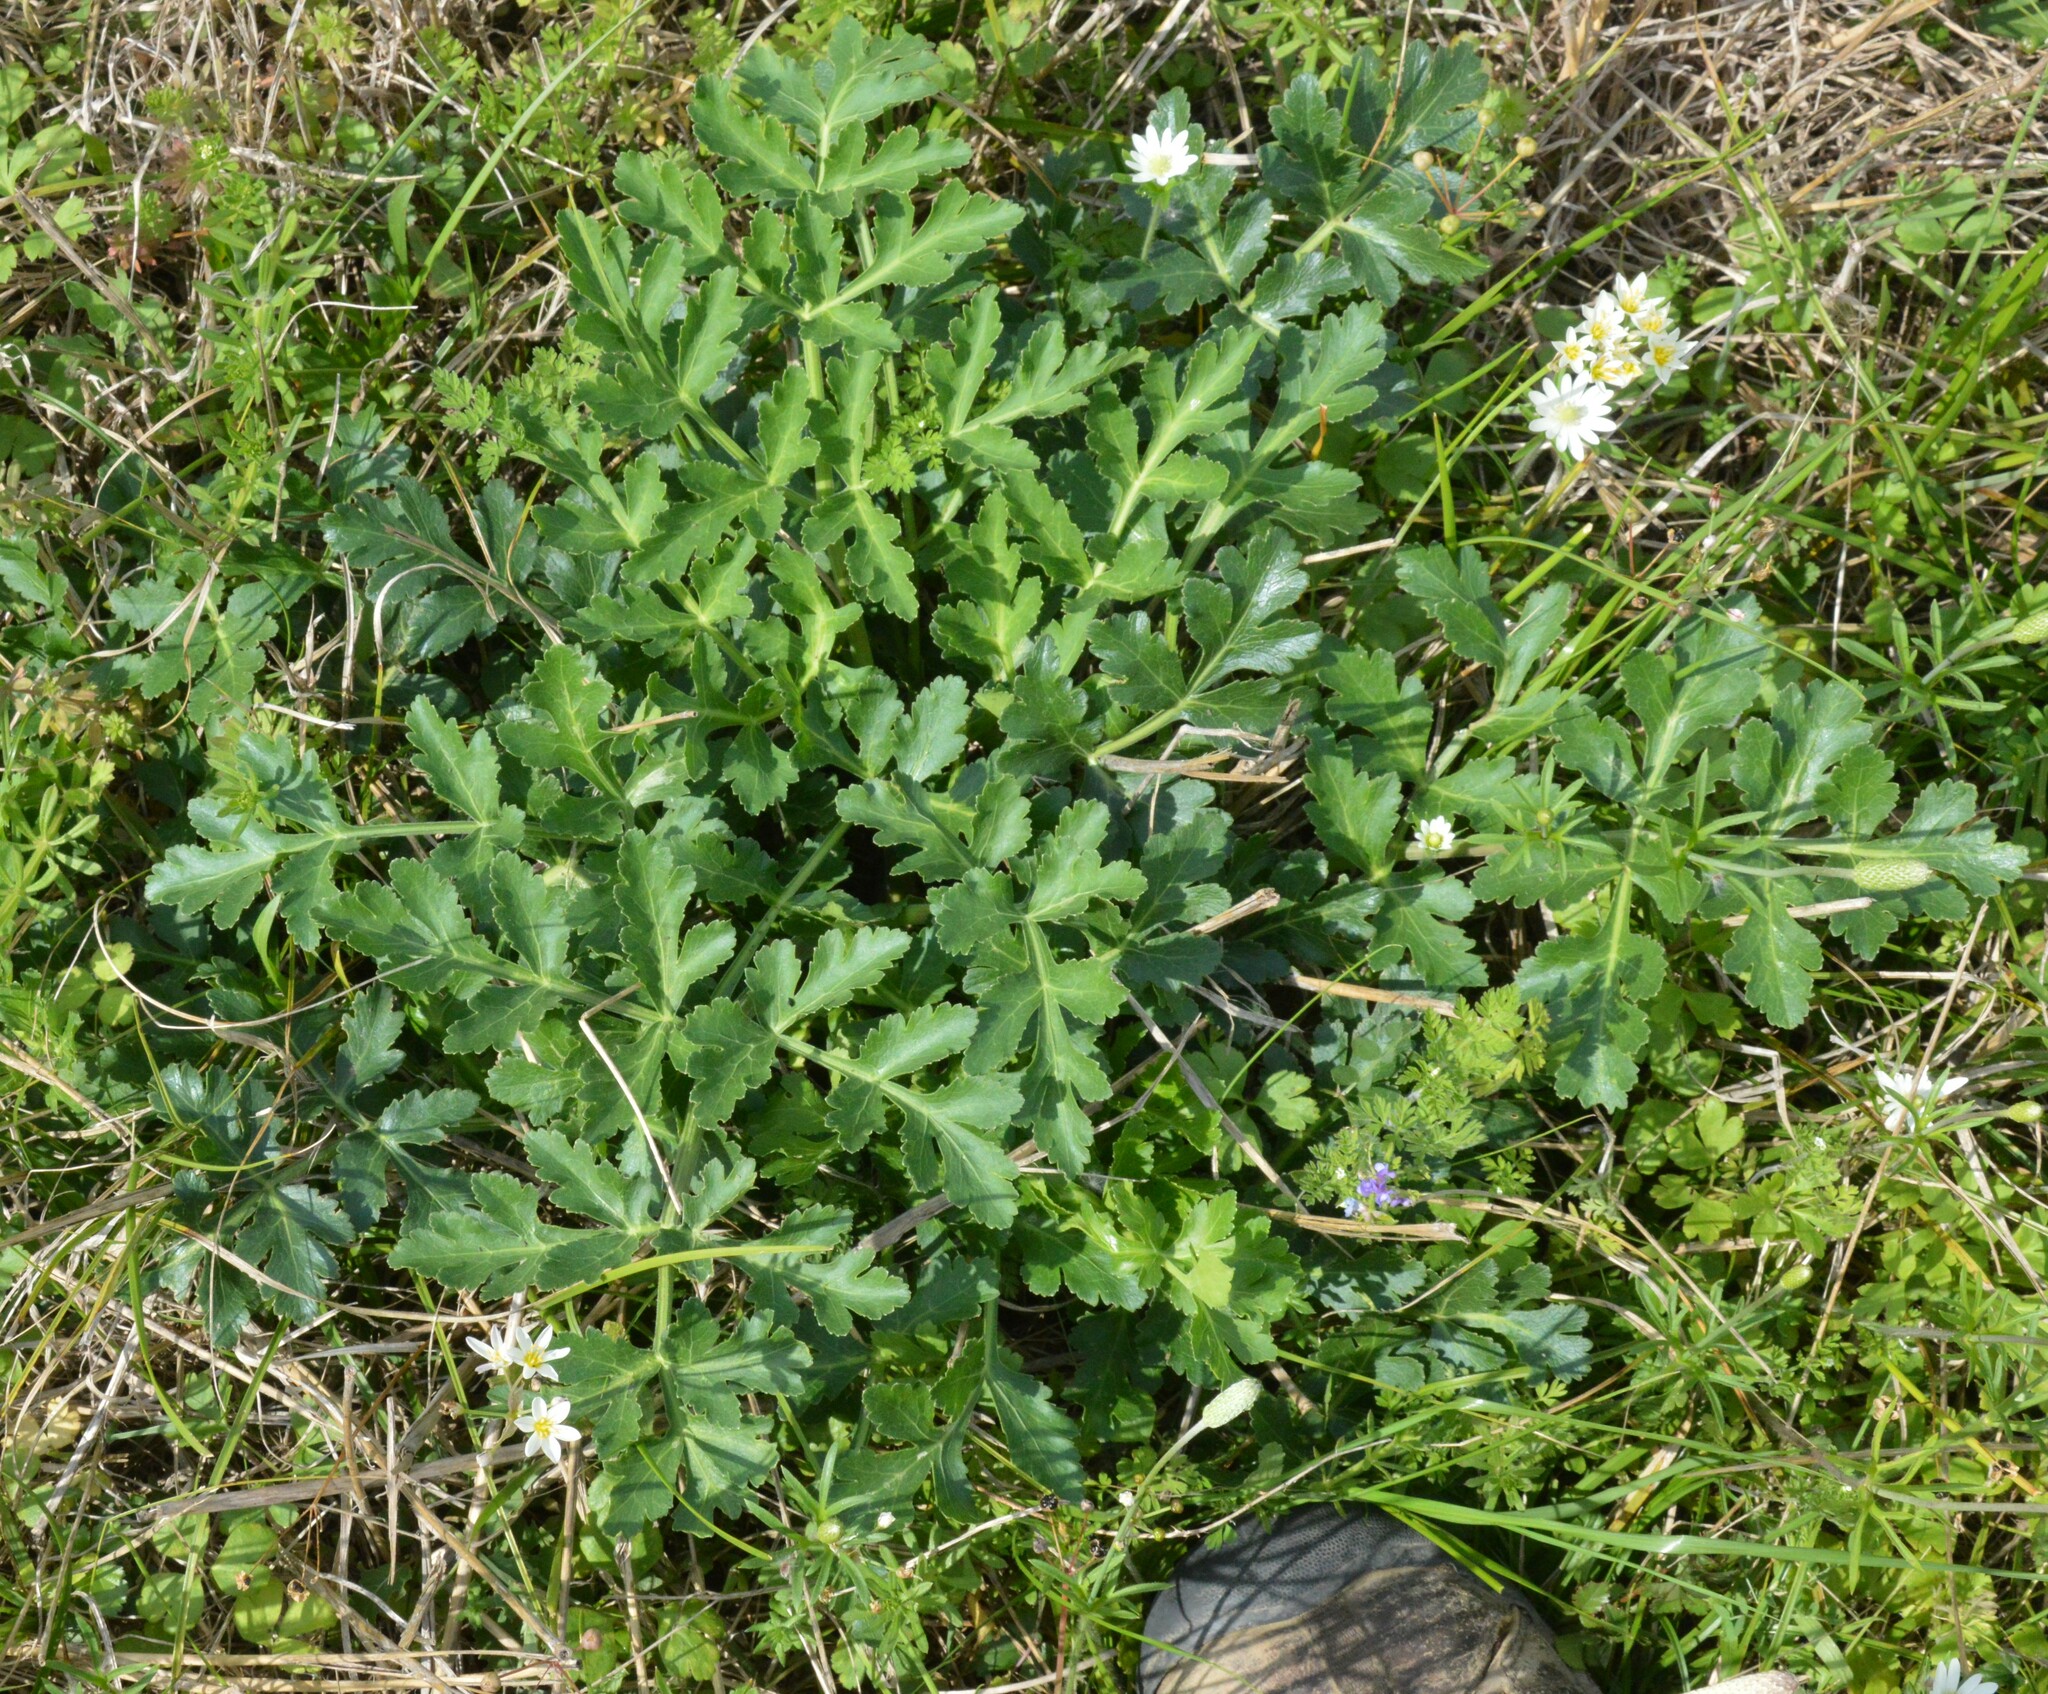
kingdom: Plantae
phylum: Tracheophyta
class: Magnoliopsida
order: Apiales
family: Apiaceae
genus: Polytaenia
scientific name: Polytaenia texana
